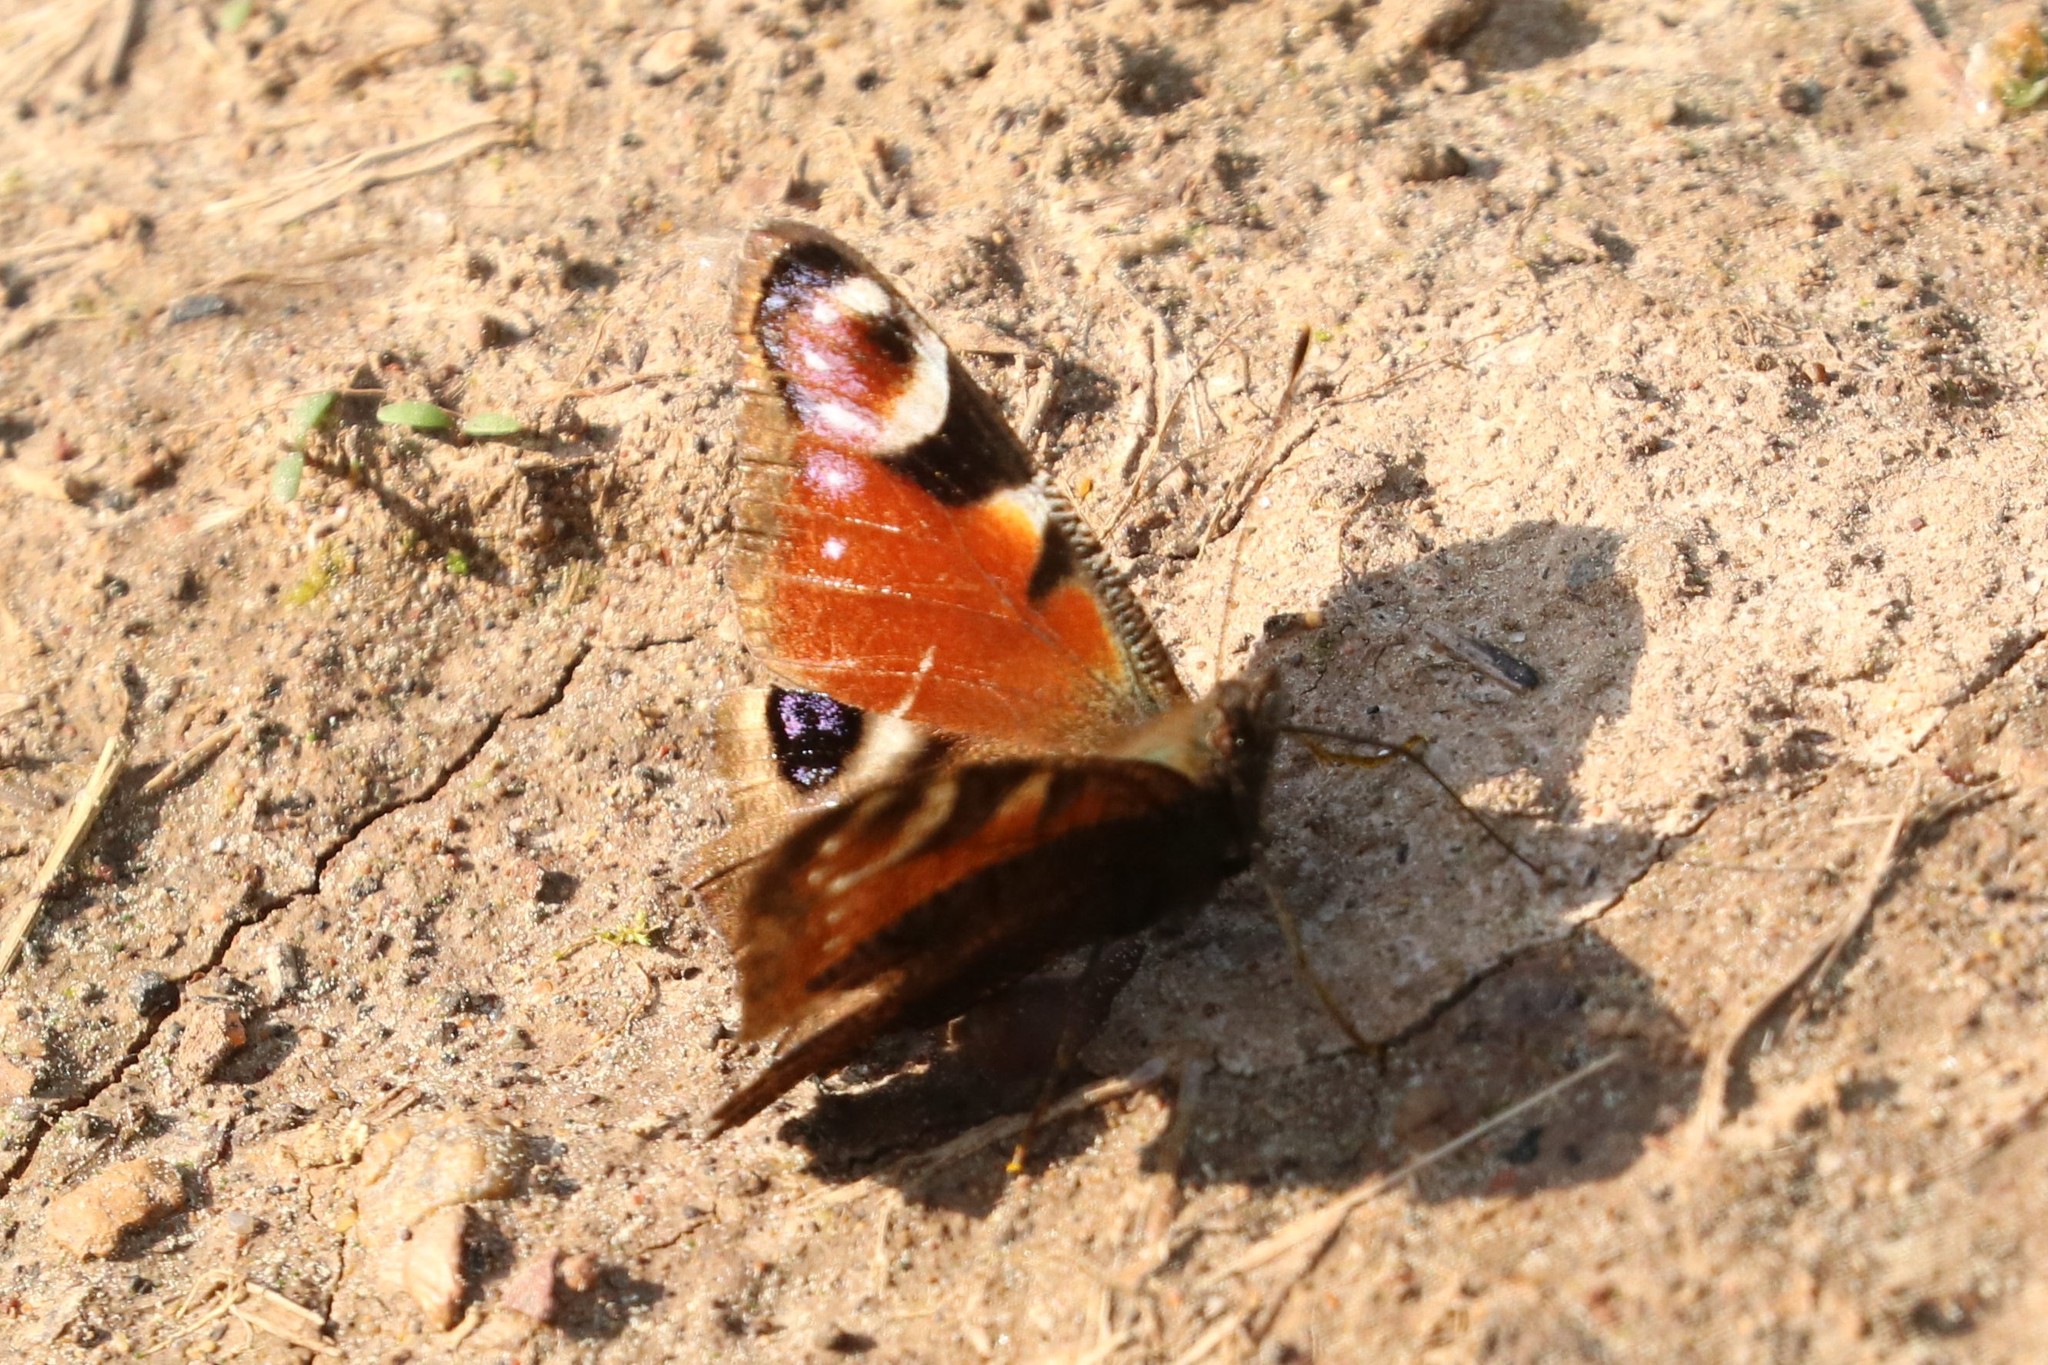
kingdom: Animalia
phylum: Arthropoda
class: Insecta
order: Lepidoptera
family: Nymphalidae
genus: Aglais
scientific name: Aglais io
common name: Peacock
